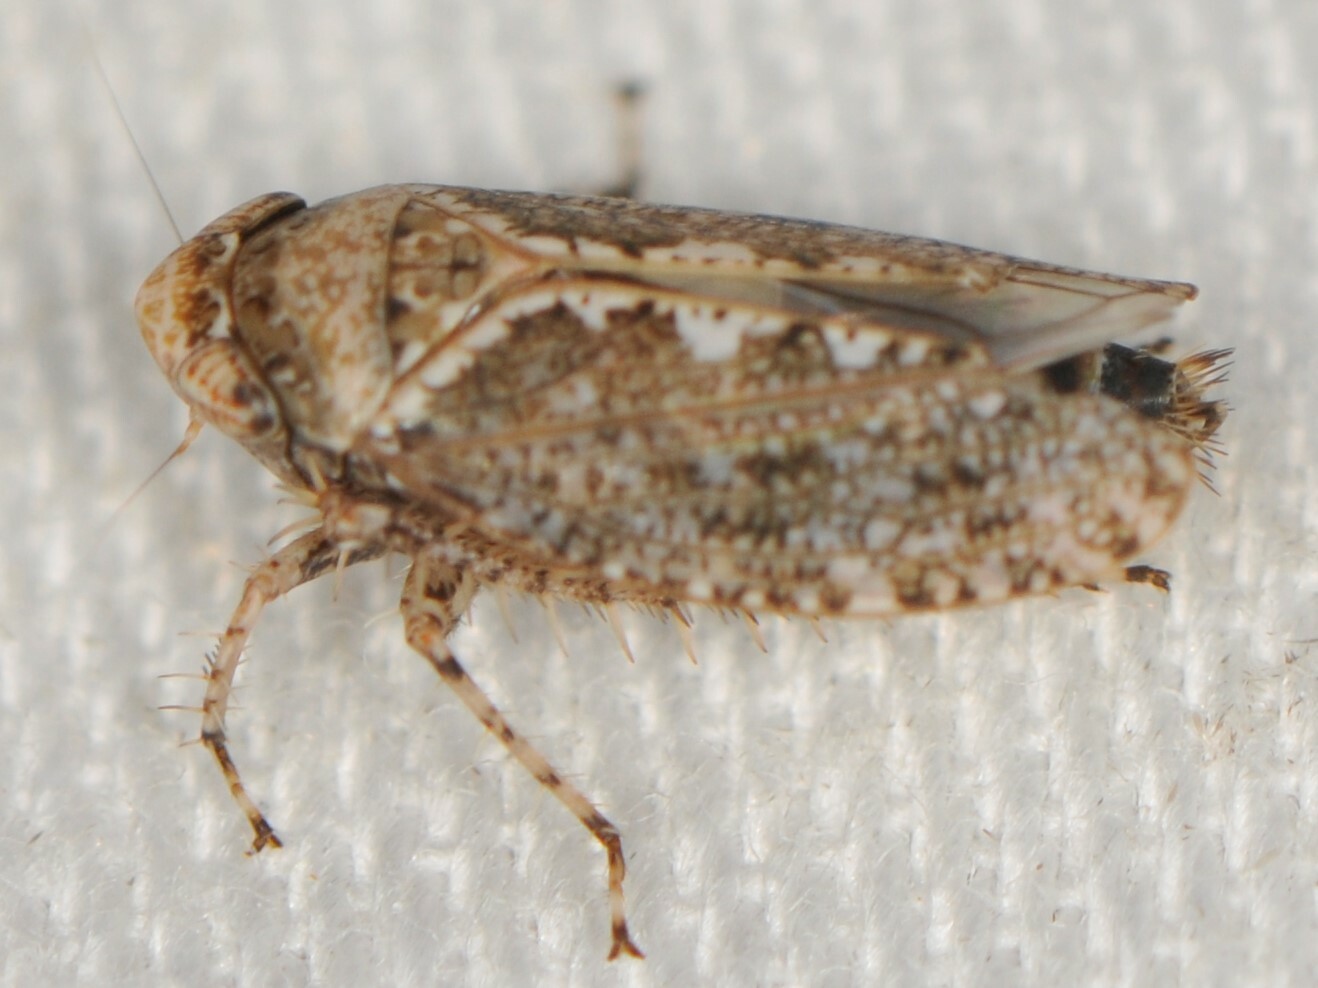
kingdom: Animalia
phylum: Arthropoda
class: Insecta
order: Hemiptera
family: Cicadellidae
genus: Texananus
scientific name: Texananus
